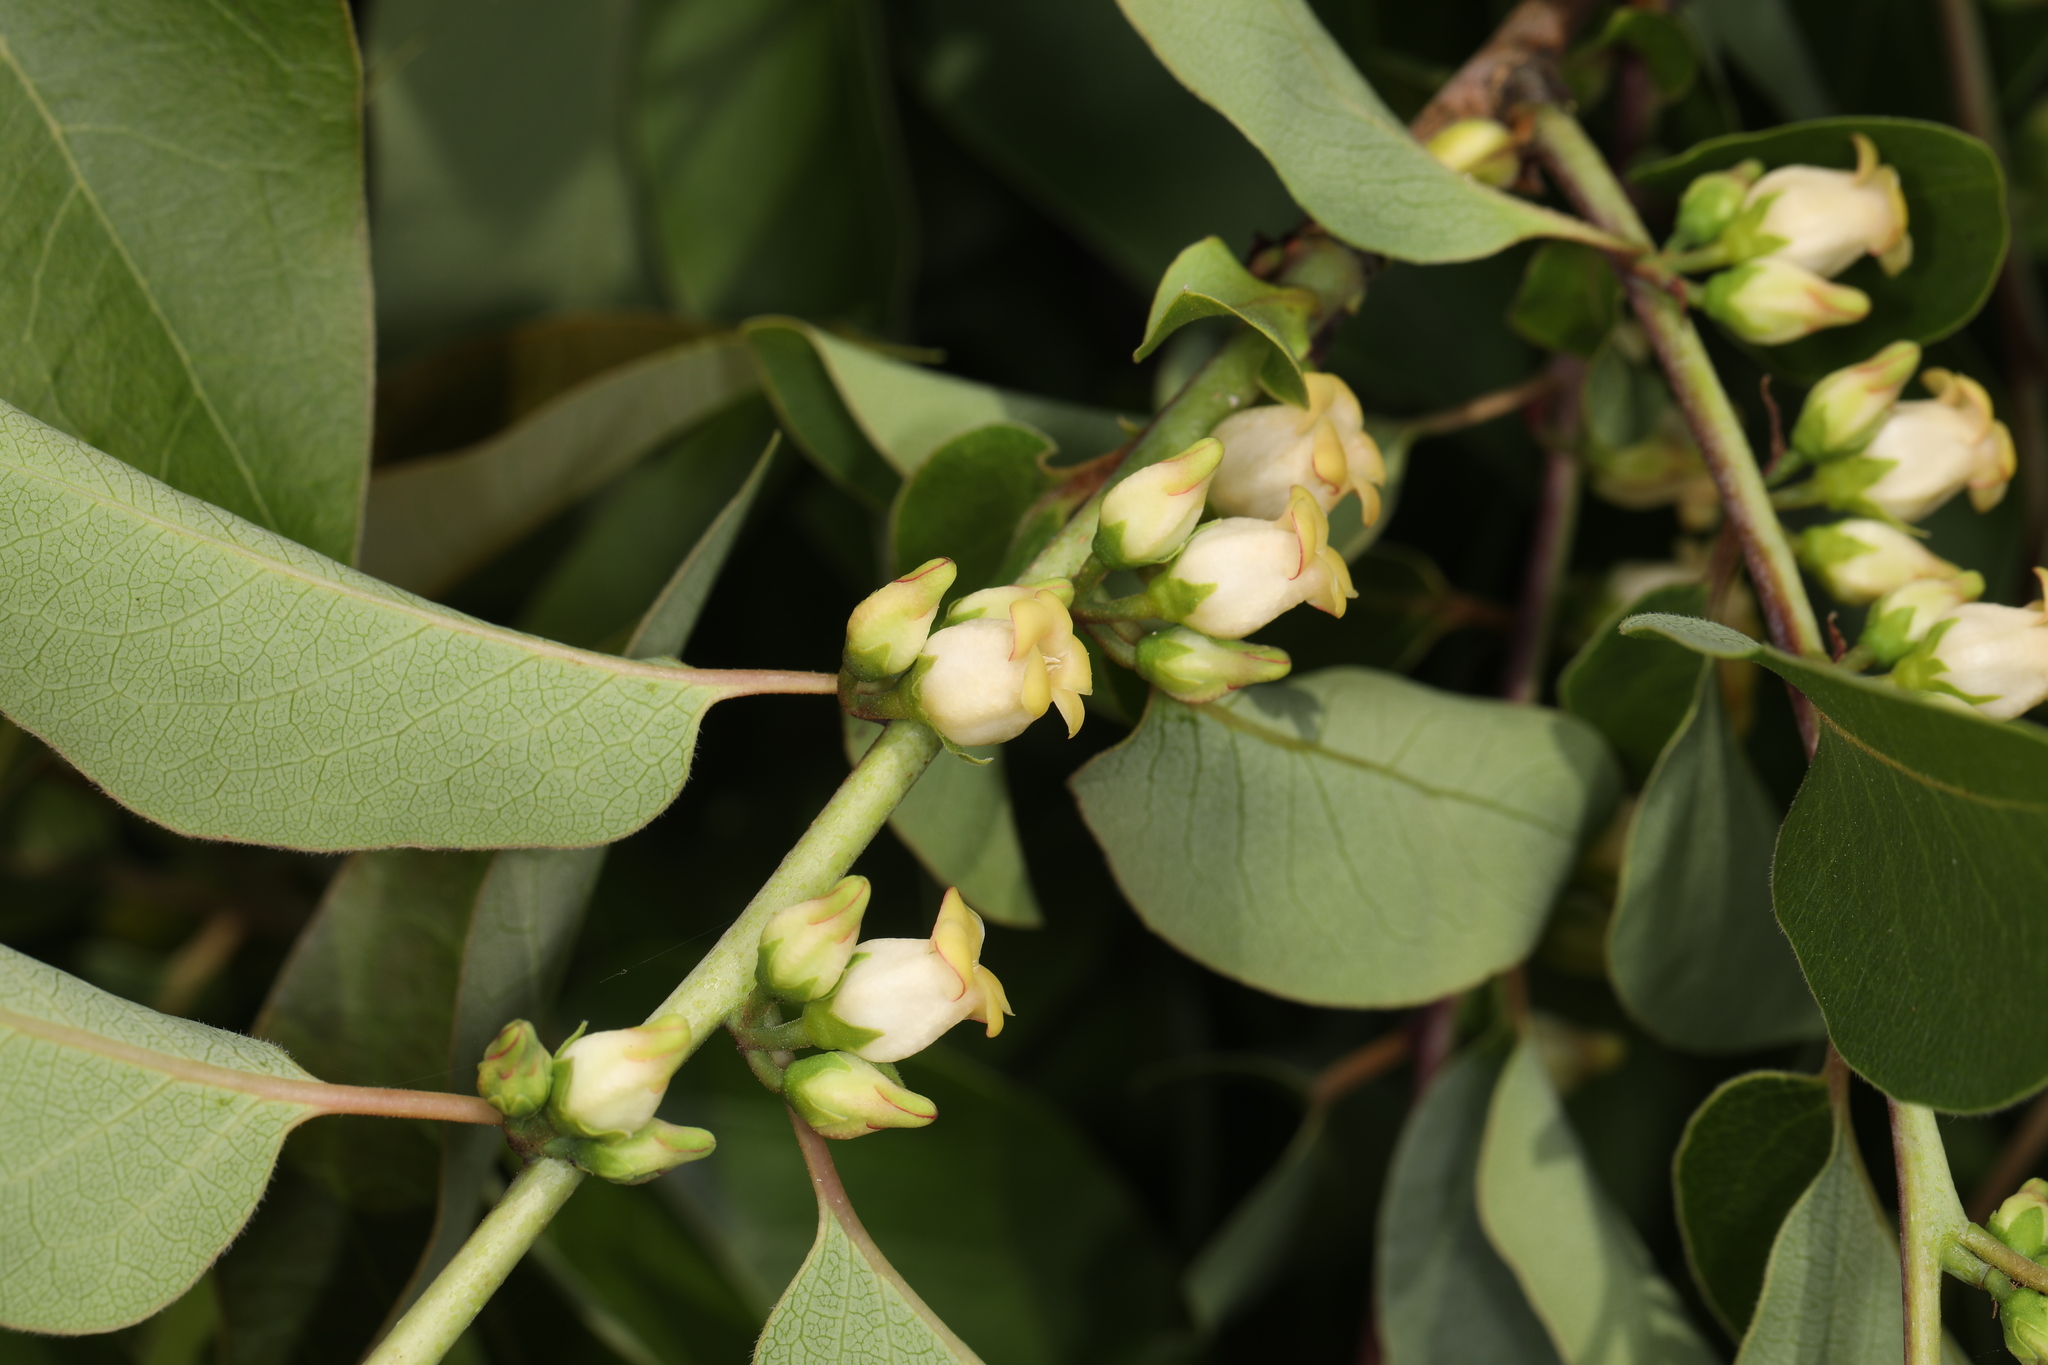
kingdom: Plantae
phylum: Tracheophyta
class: Magnoliopsida
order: Ericales
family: Ebenaceae
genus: Diospyros
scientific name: Diospyros virginiana
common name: Persimmon
